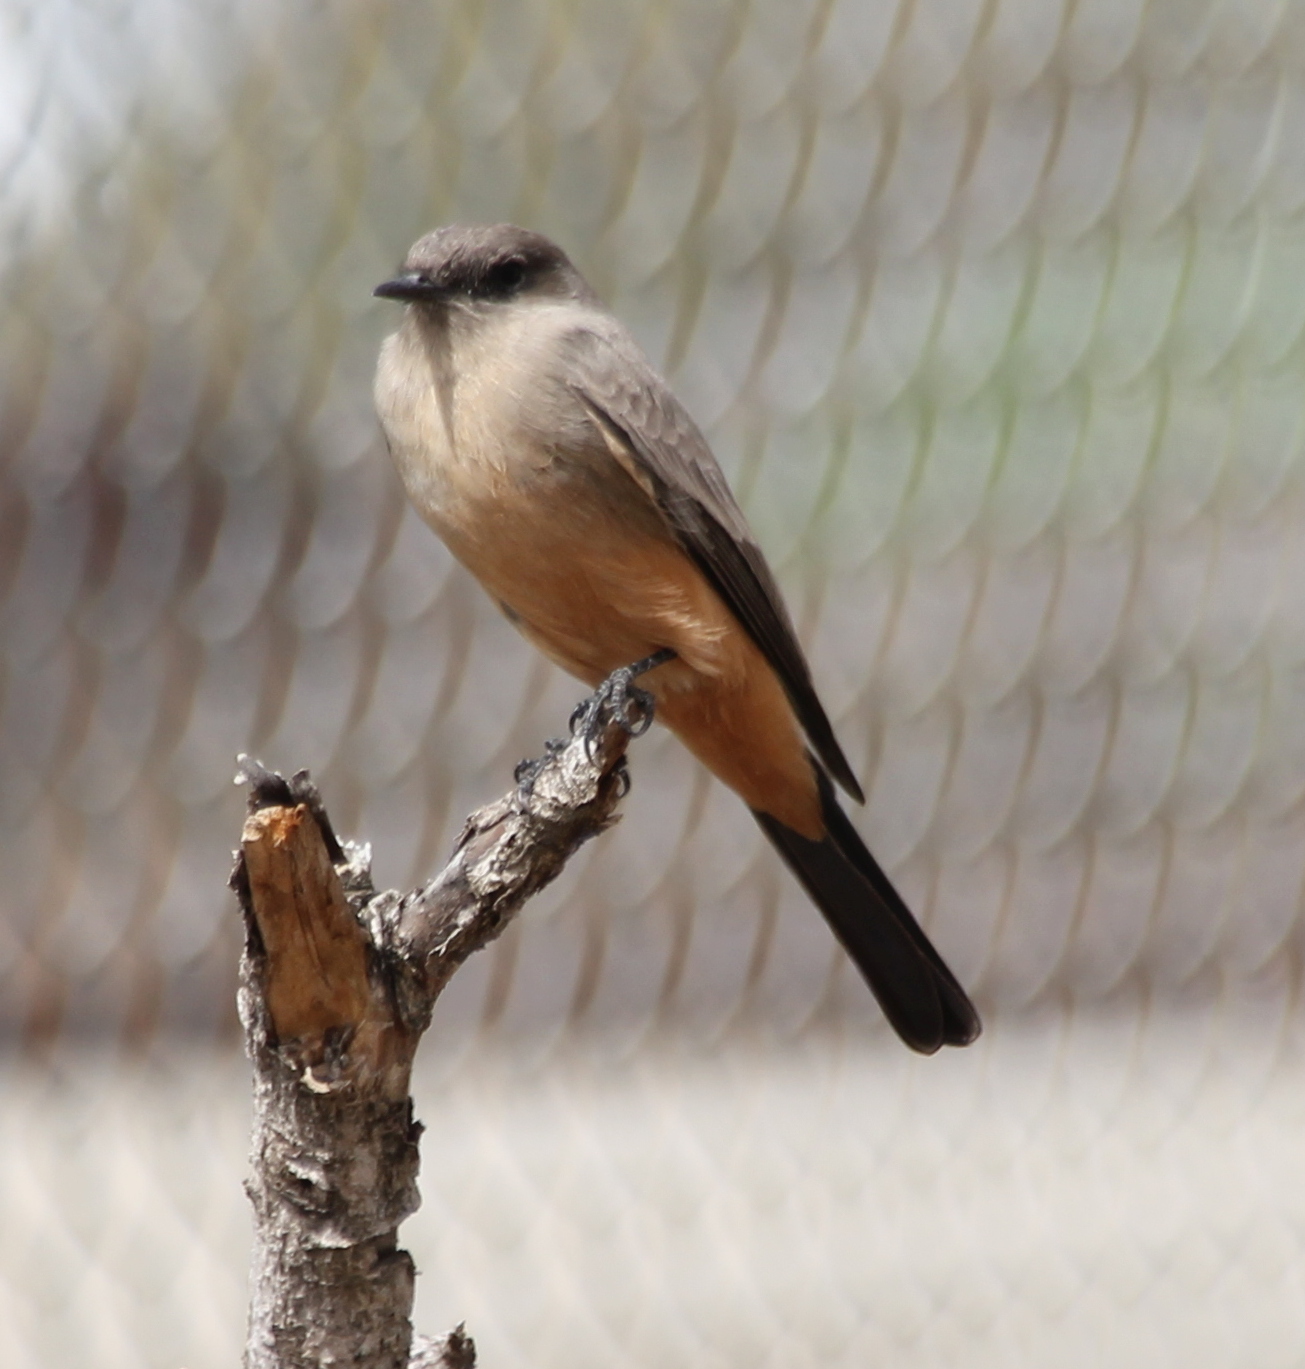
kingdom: Animalia
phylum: Chordata
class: Aves
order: Passeriformes
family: Tyrannidae
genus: Sayornis
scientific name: Sayornis saya
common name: Say's phoebe
